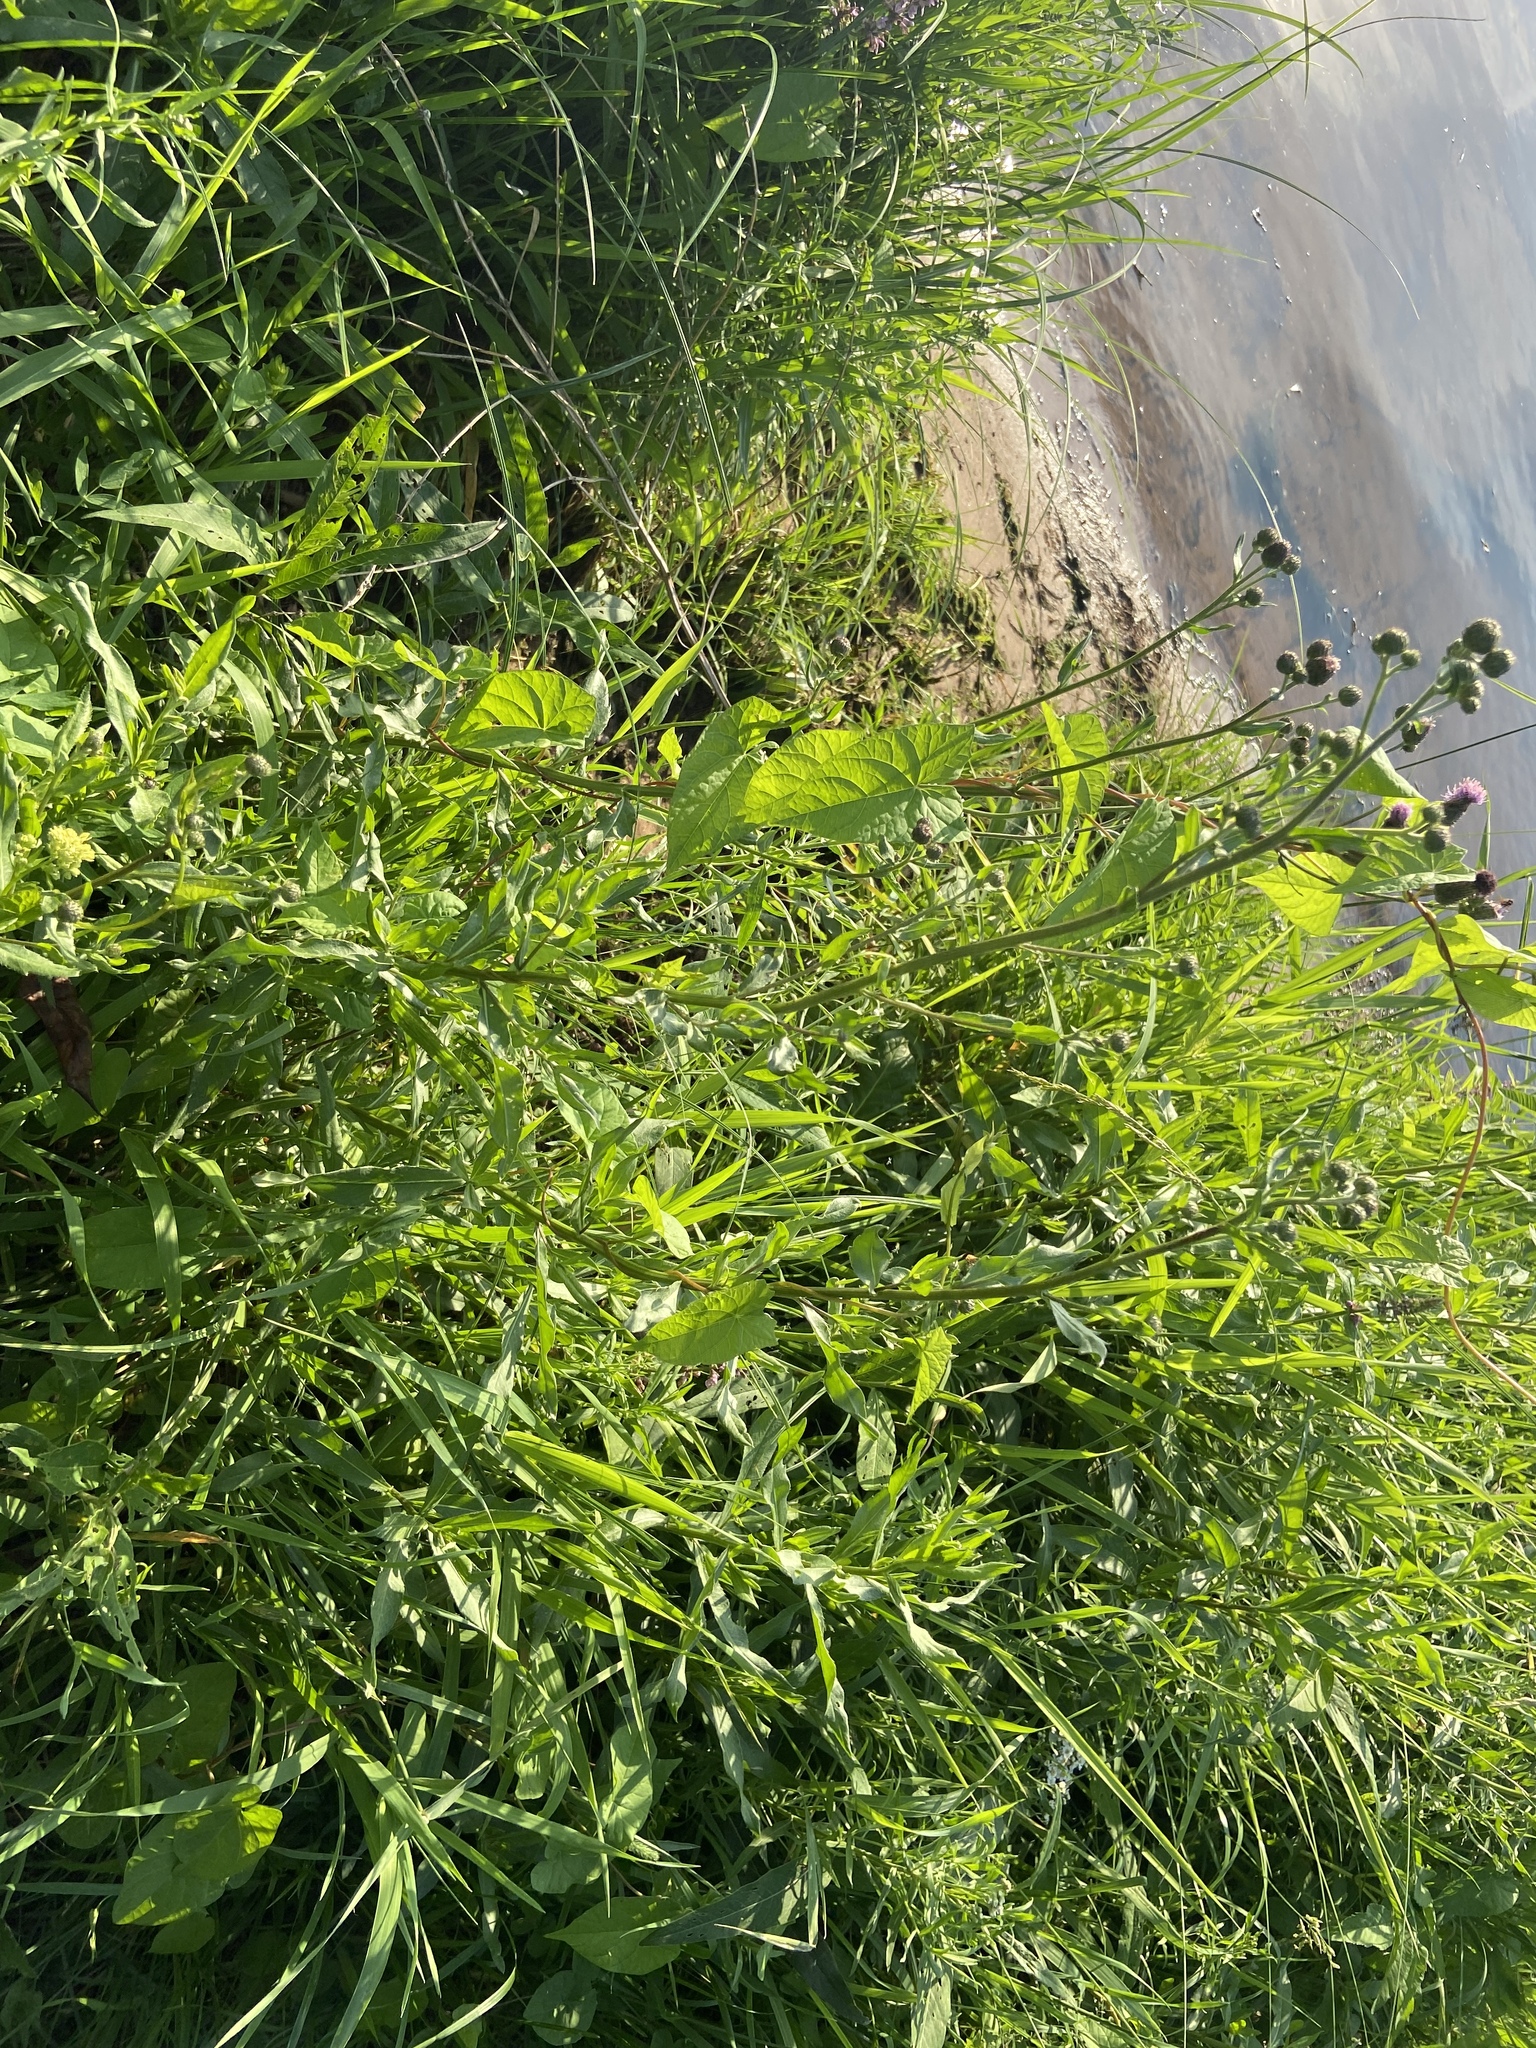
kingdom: Plantae
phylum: Tracheophyta
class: Magnoliopsida
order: Asterales
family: Asteraceae
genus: Cirsium
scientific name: Cirsium arvense
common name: Creeping thistle
